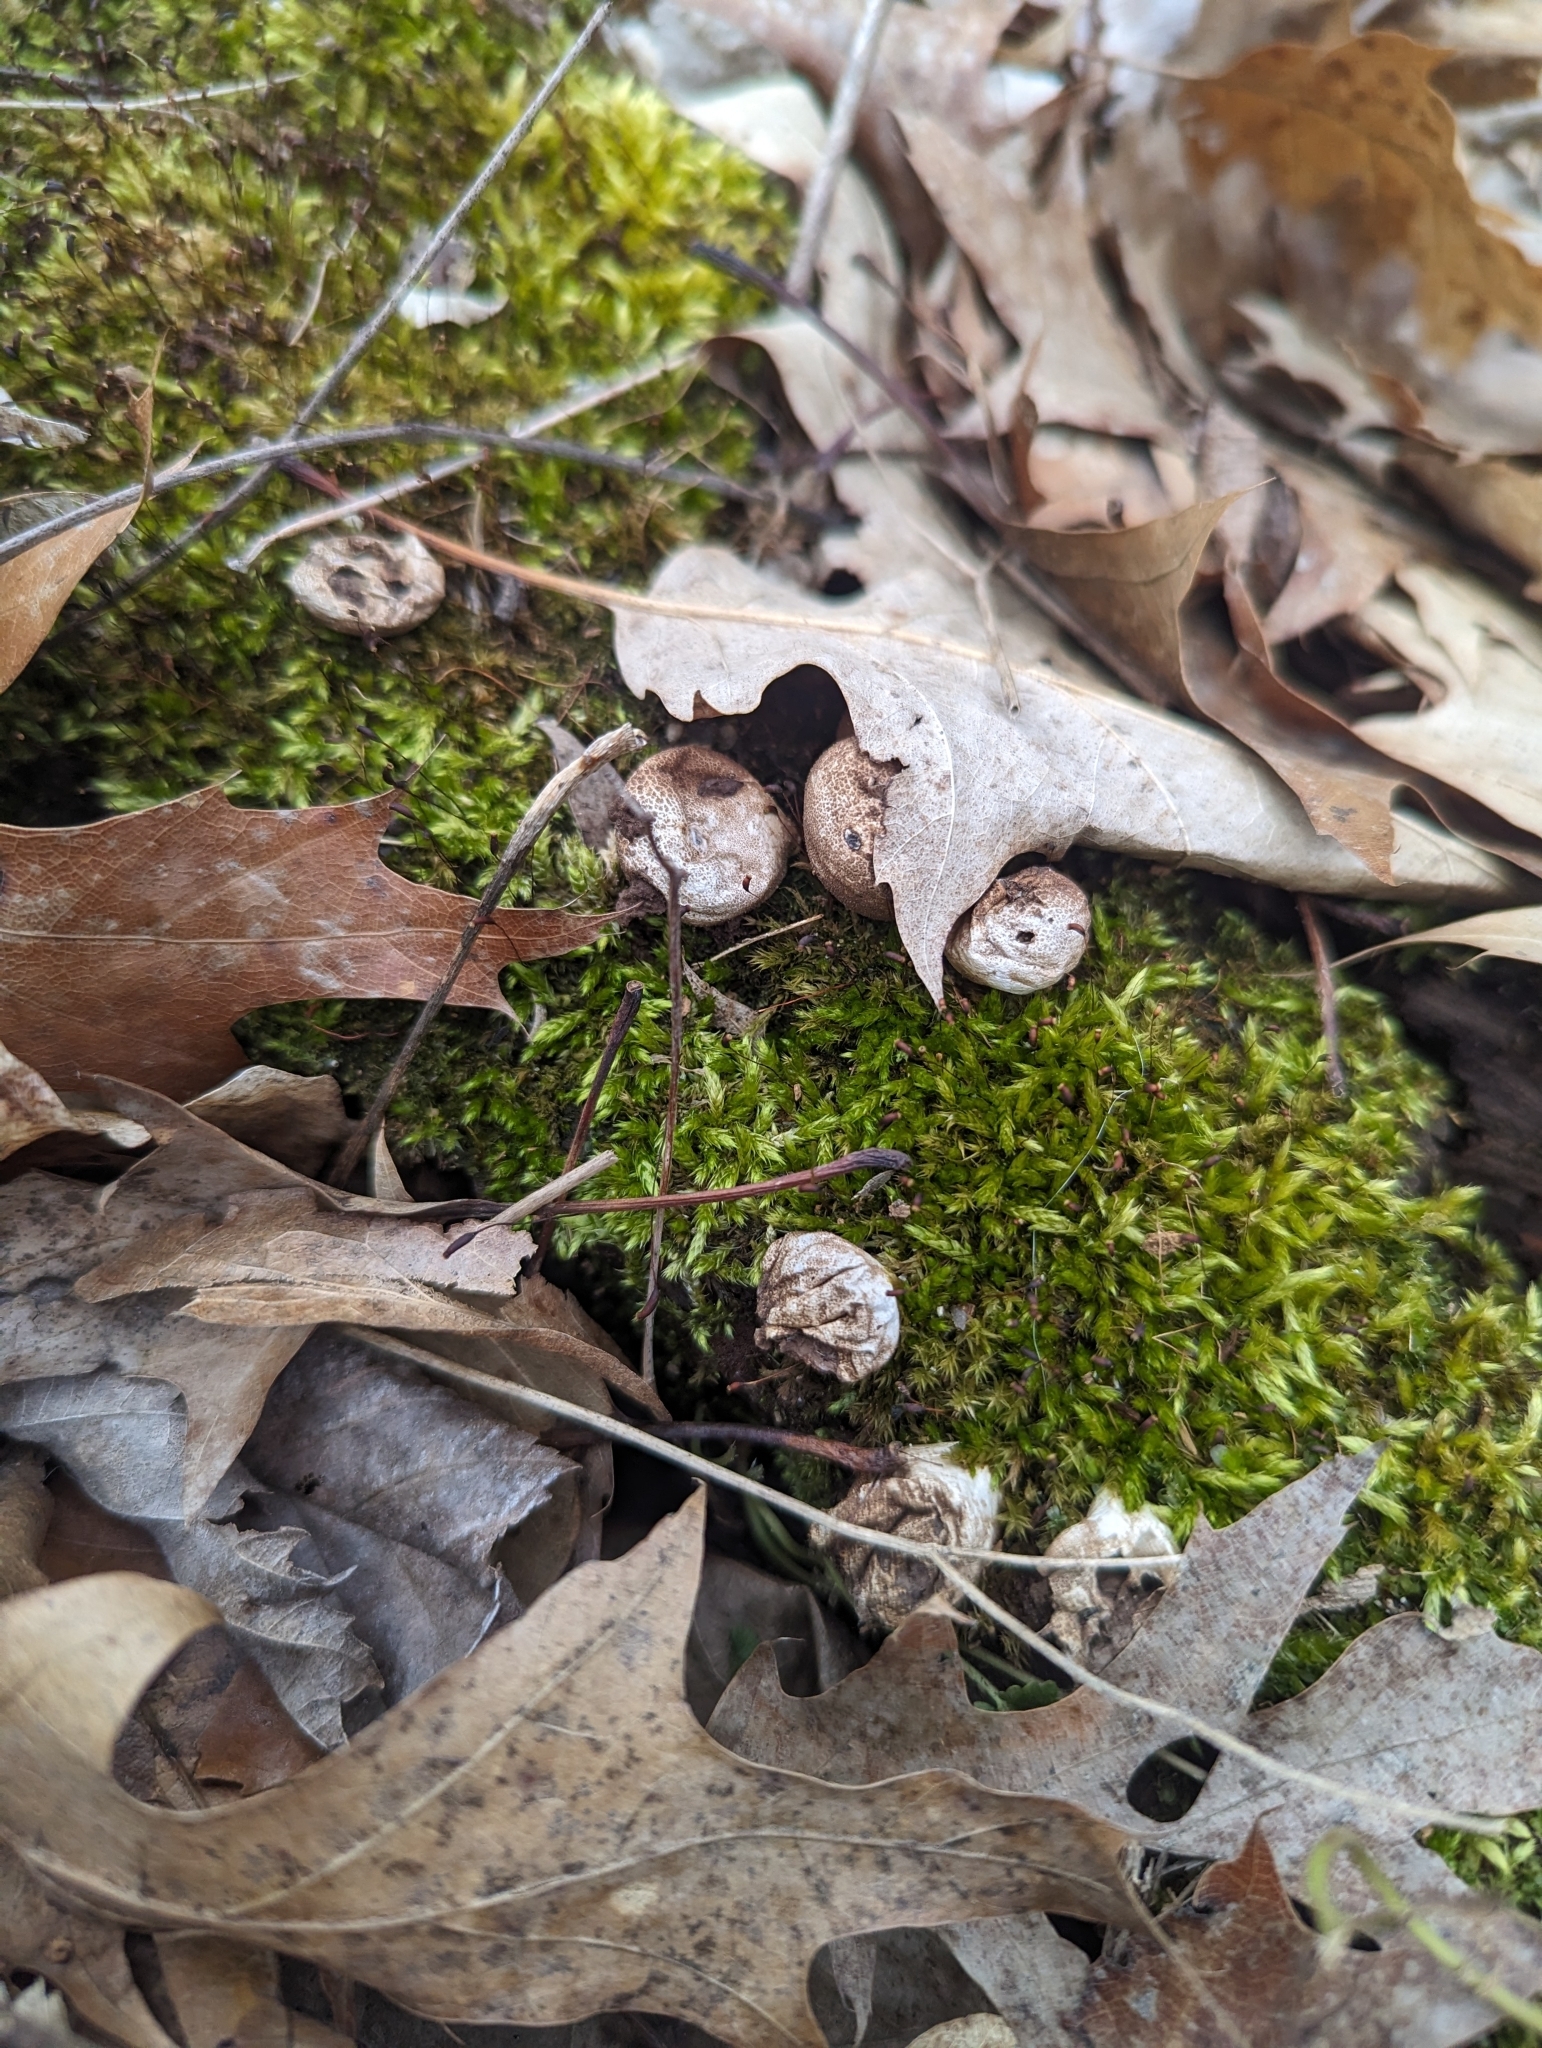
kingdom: Fungi
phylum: Basidiomycota
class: Agaricomycetes
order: Agaricales
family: Lycoperdaceae
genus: Apioperdon
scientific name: Apioperdon pyriforme
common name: Pear-shaped puffball
